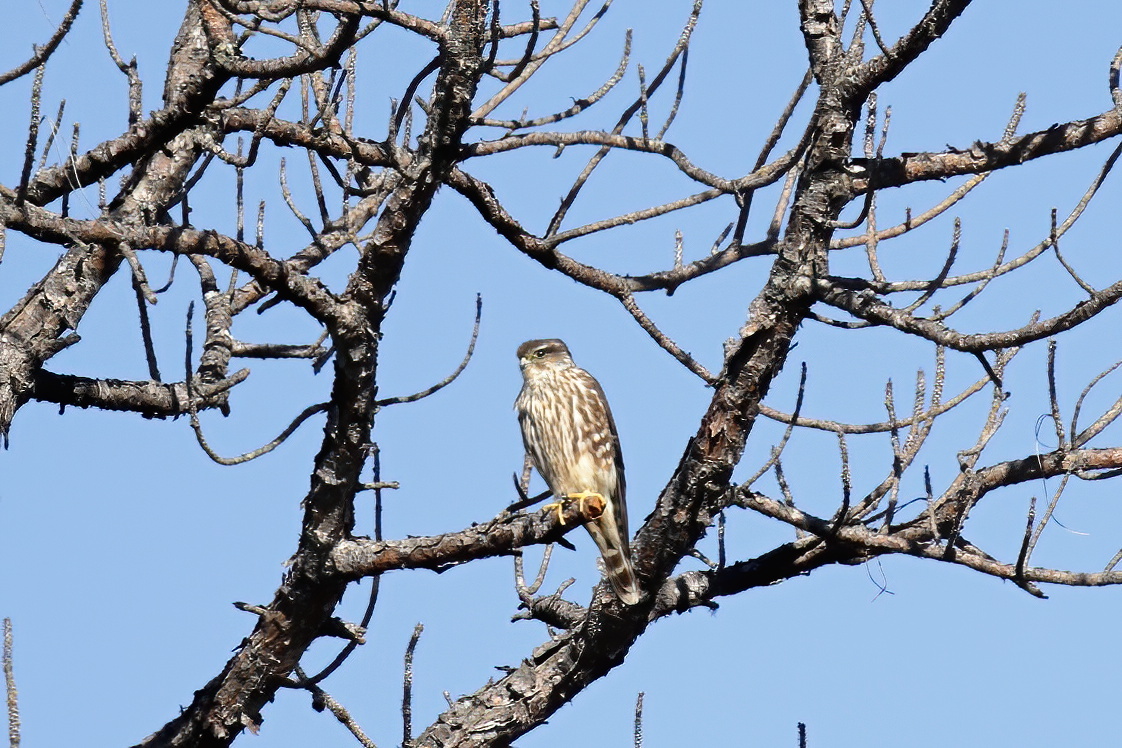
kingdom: Animalia
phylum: Chordata
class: Aves
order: Falconiformes
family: Falconidae
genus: Falco
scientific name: Falco columbarius
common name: Merlin
